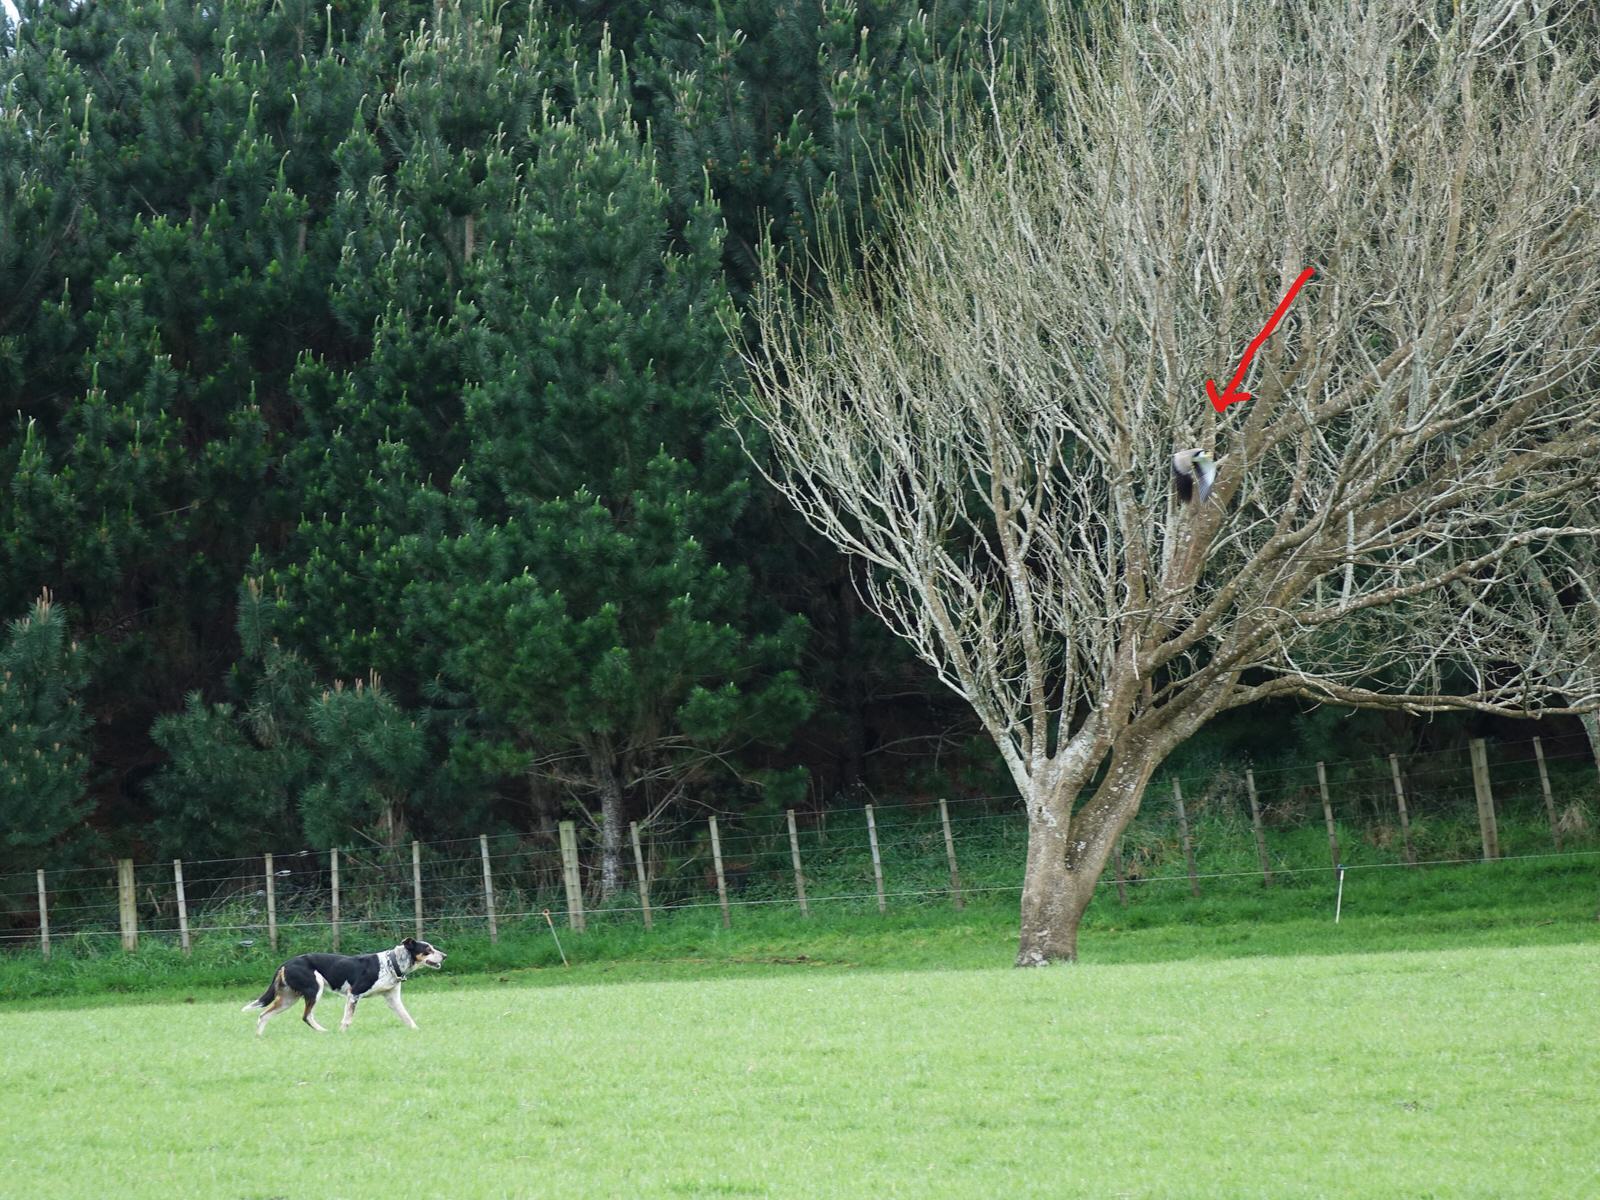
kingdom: Animalia
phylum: Chordata
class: Aves
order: Charadriiformes
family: Charadriidae
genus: Vanellus
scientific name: Vanellus miles
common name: Masked lapwing
